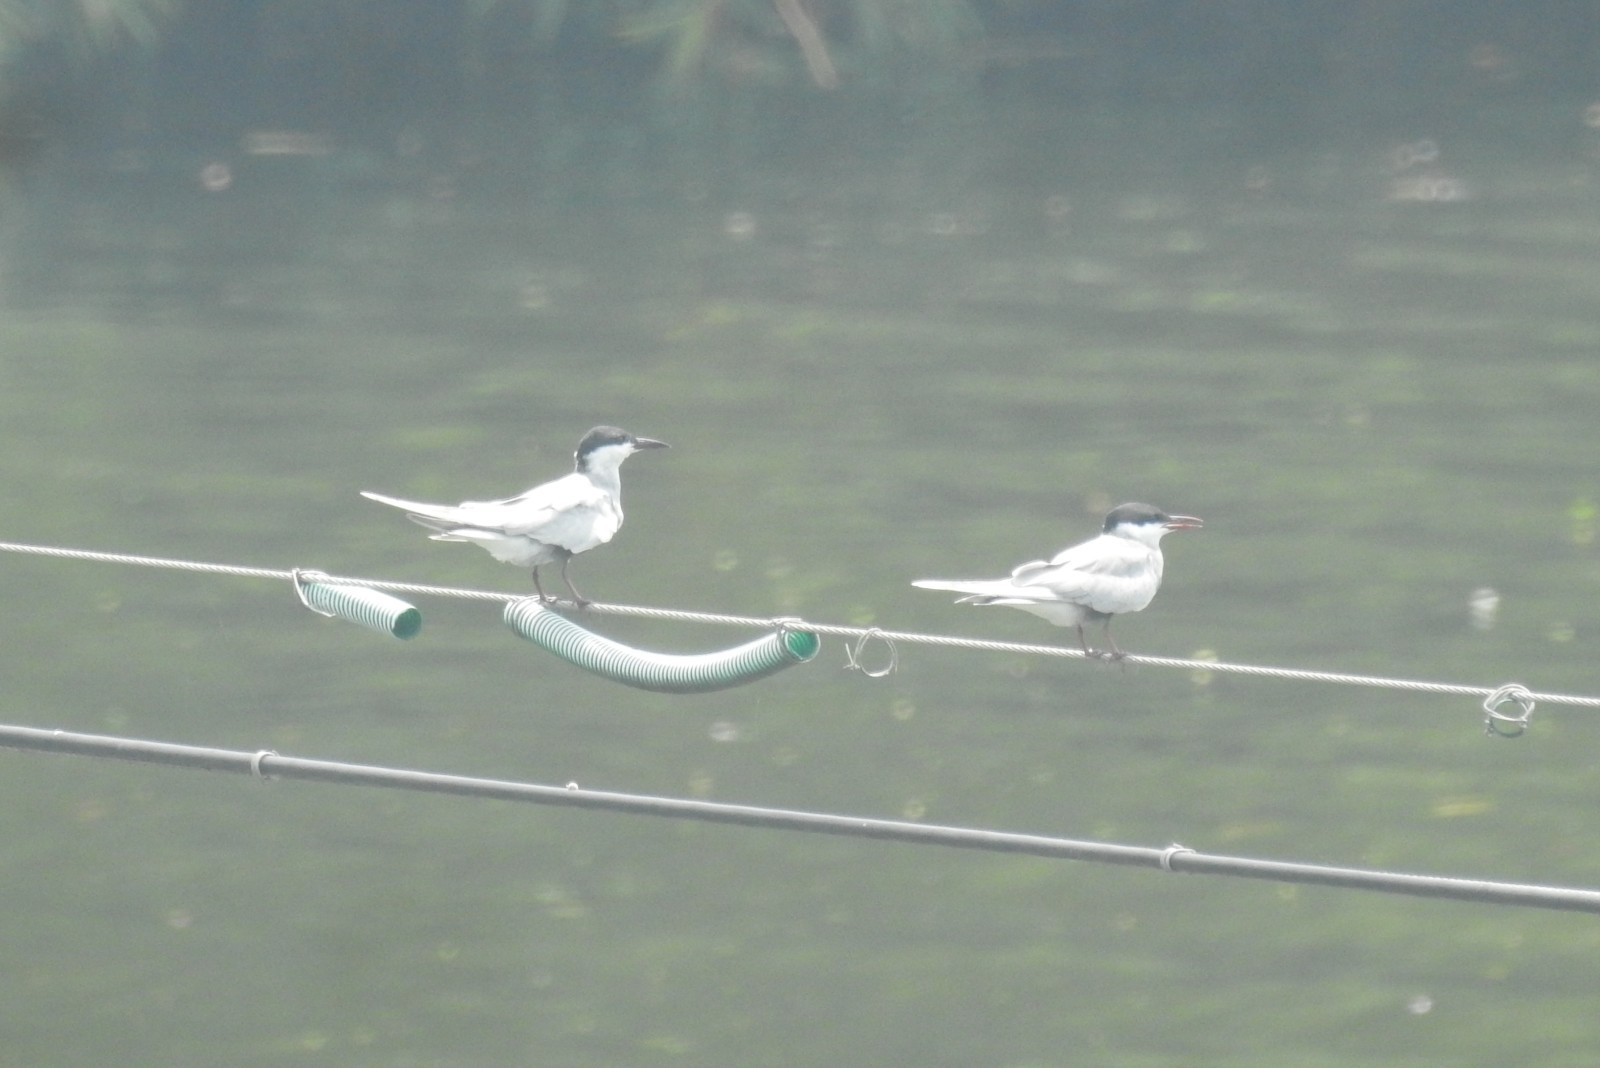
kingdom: Animalia
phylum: Chordata
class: Aves
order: Charadriiformes
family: Laridae
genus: Chlidonias
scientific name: Chlidonias hybrida
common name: Whiskered tern
